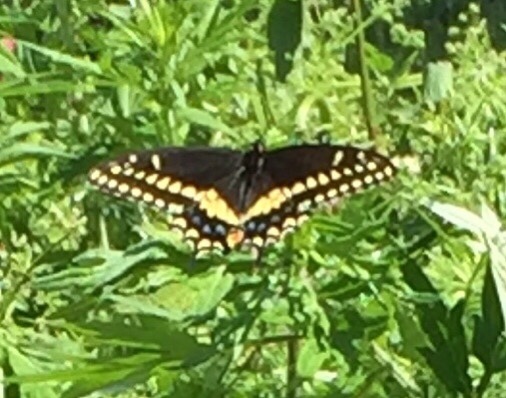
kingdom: Animalia
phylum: Arthropoda
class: Insecta
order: Lepidoptera
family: Papilionidae
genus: Papilio
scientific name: Papilio polyxenes
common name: Black swallowtail
